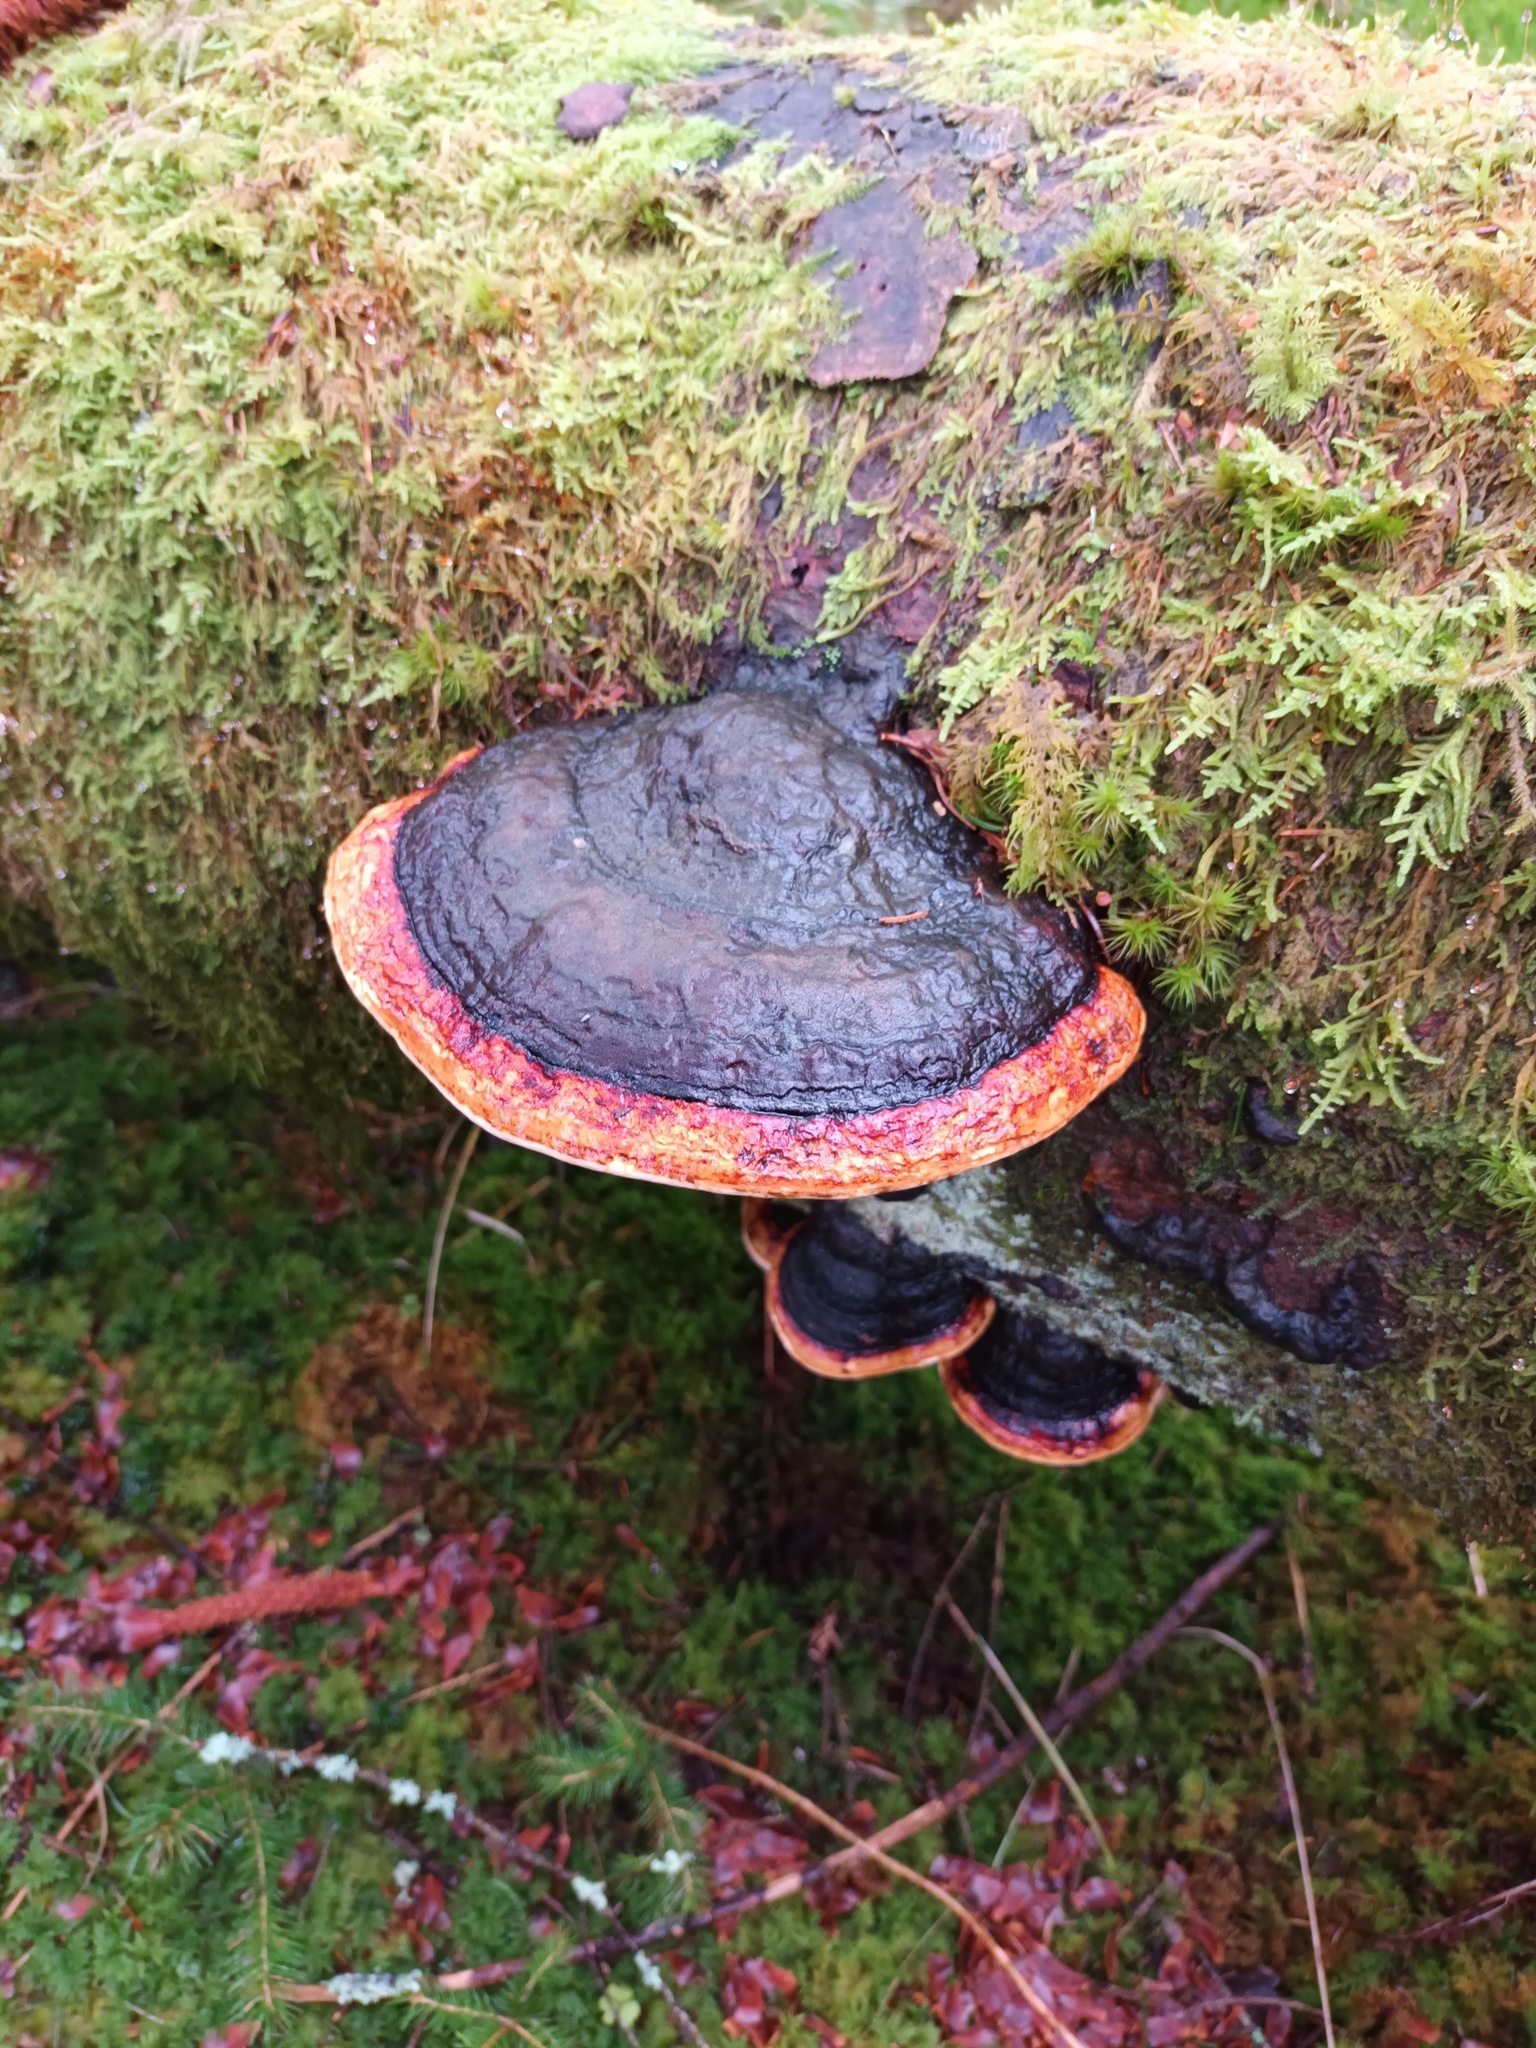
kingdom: Fungi
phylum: Basidiomycota
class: Agaricomycetes
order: Polyporales
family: Fomitopsidaceae
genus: Fomitopsis
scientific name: Fomitopsis pinicola
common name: Red-belted bracket
